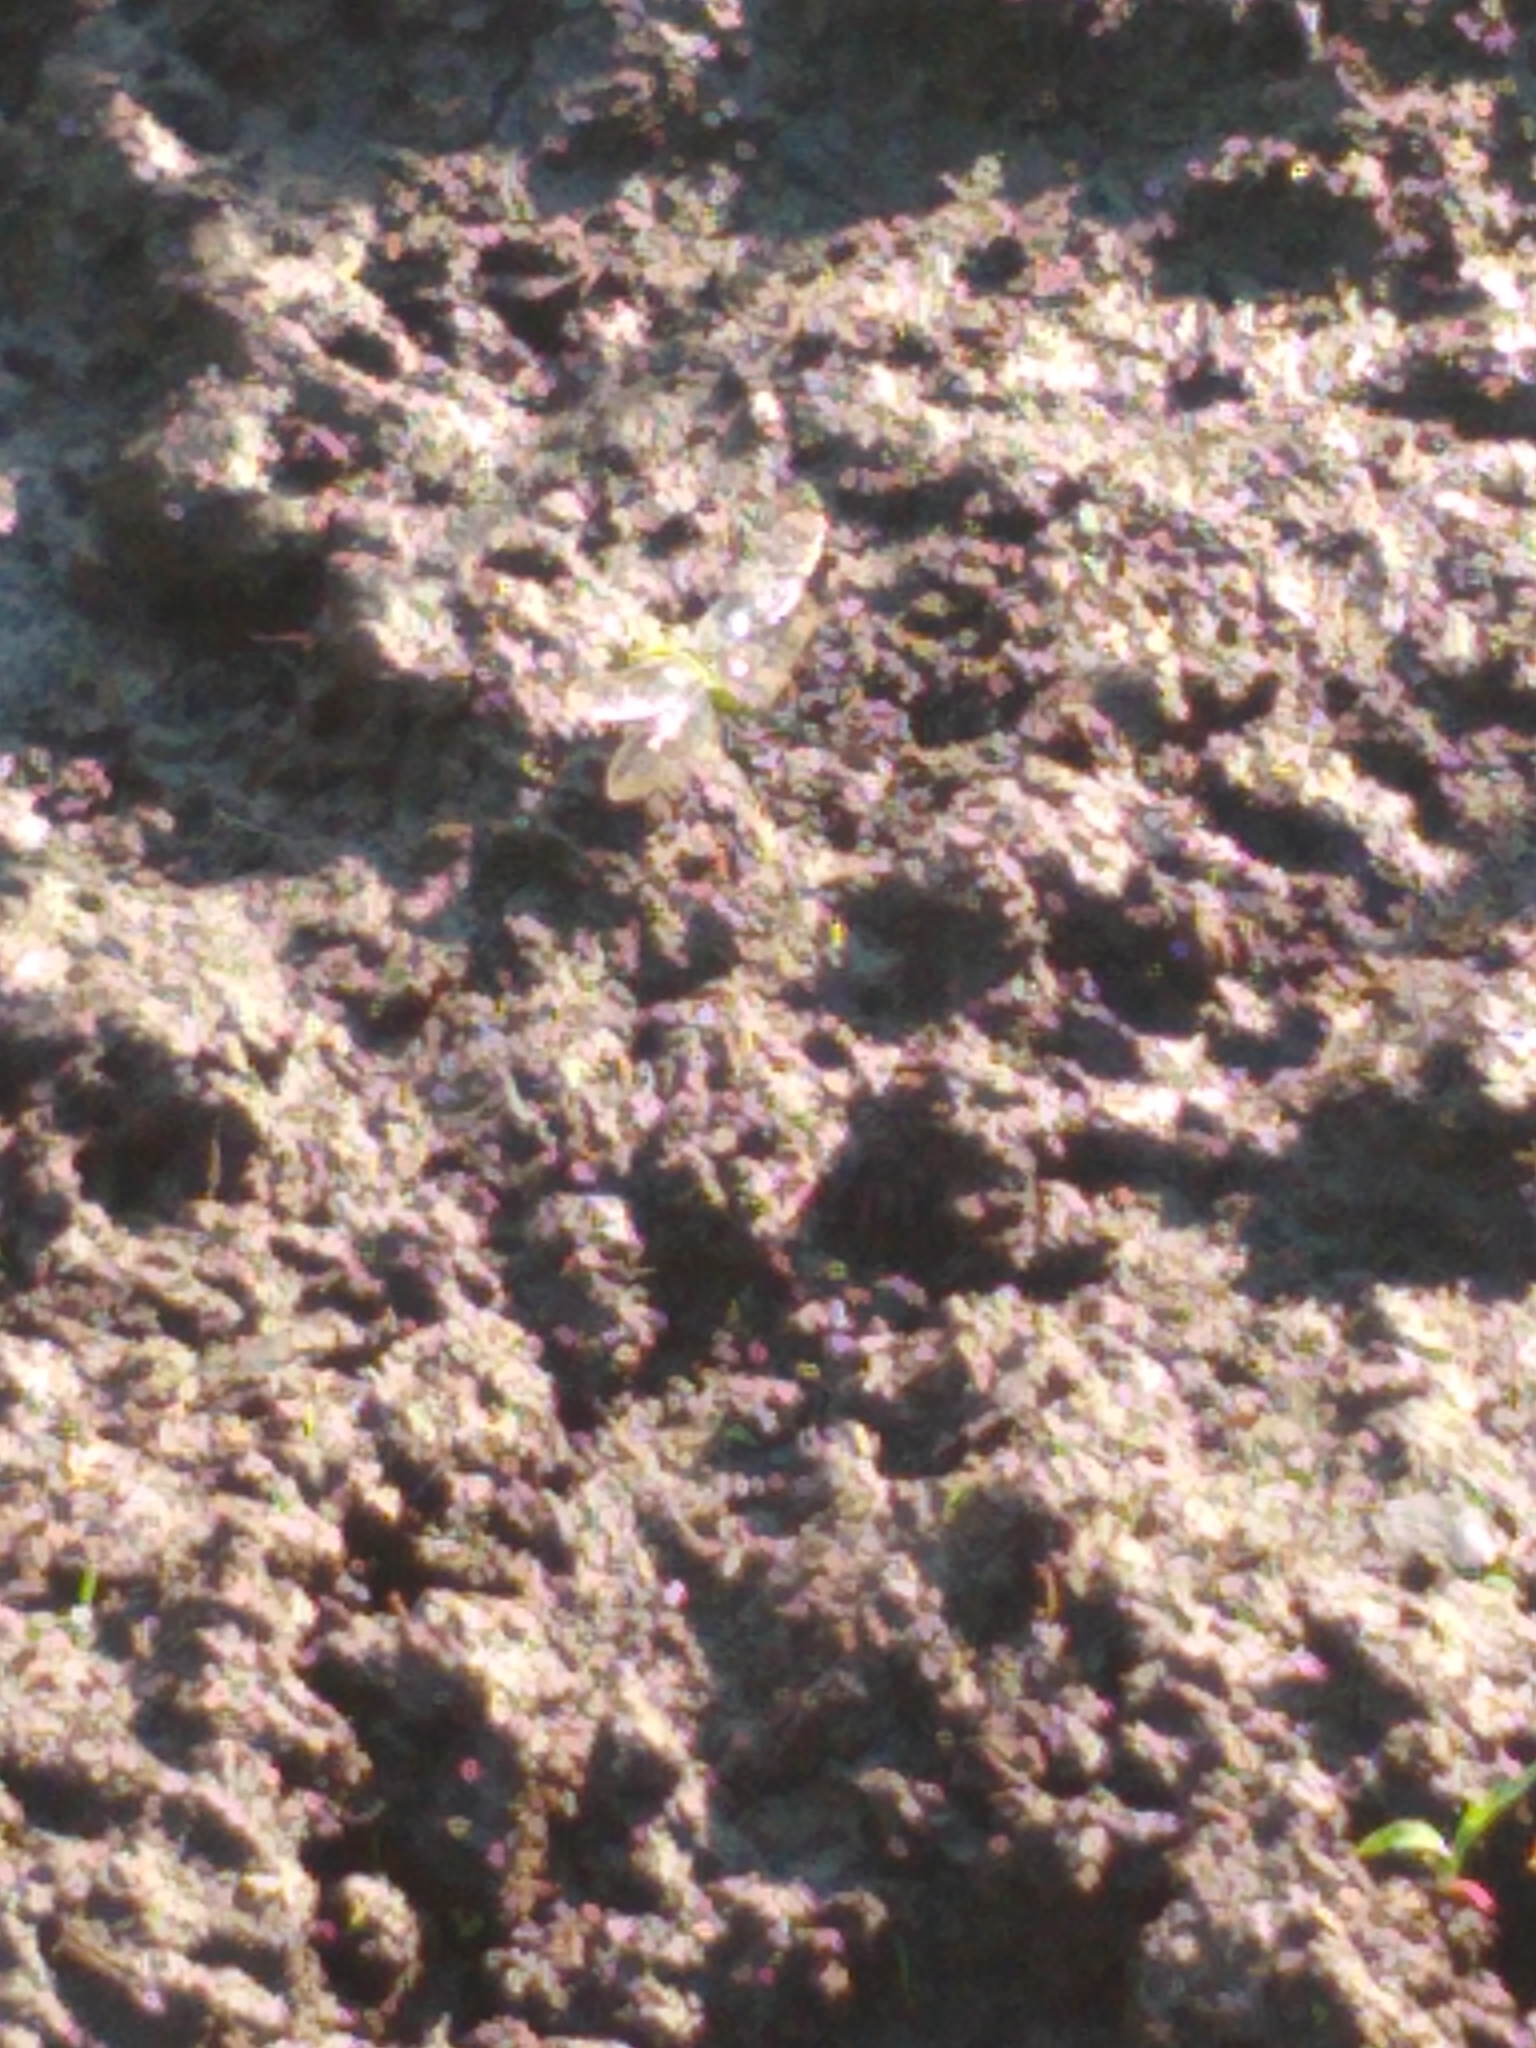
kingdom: Animalia
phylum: Arthropoda
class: Insecta
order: Odonata
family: Libellulidae
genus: Erythemis
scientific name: Erythemis simplicicollis
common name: Eastern pondhawk
